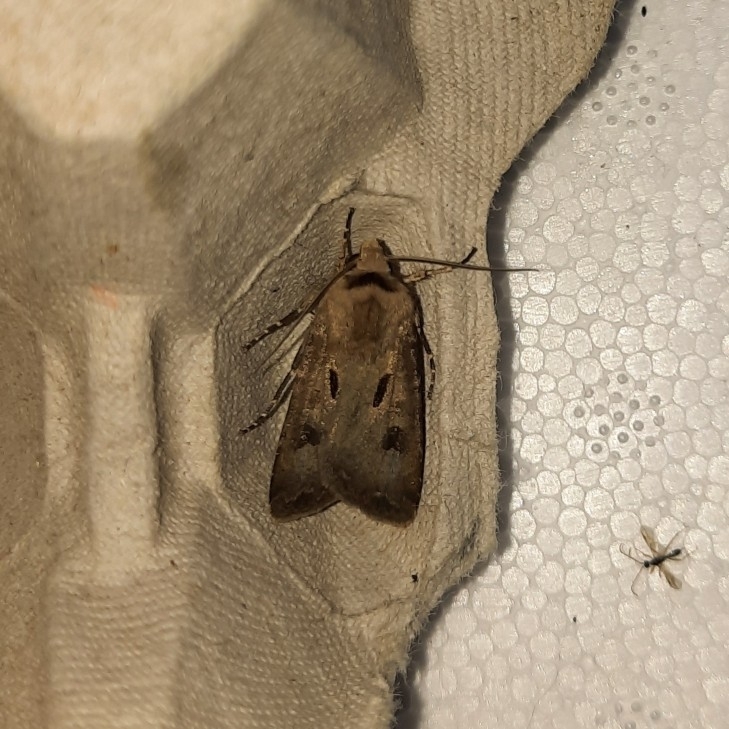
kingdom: Animalia
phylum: Arthropoda
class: Insecta
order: Lepidoptera
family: Noctuidae
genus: Agrotis
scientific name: Agrotis exclamationis
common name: Heart and dart
